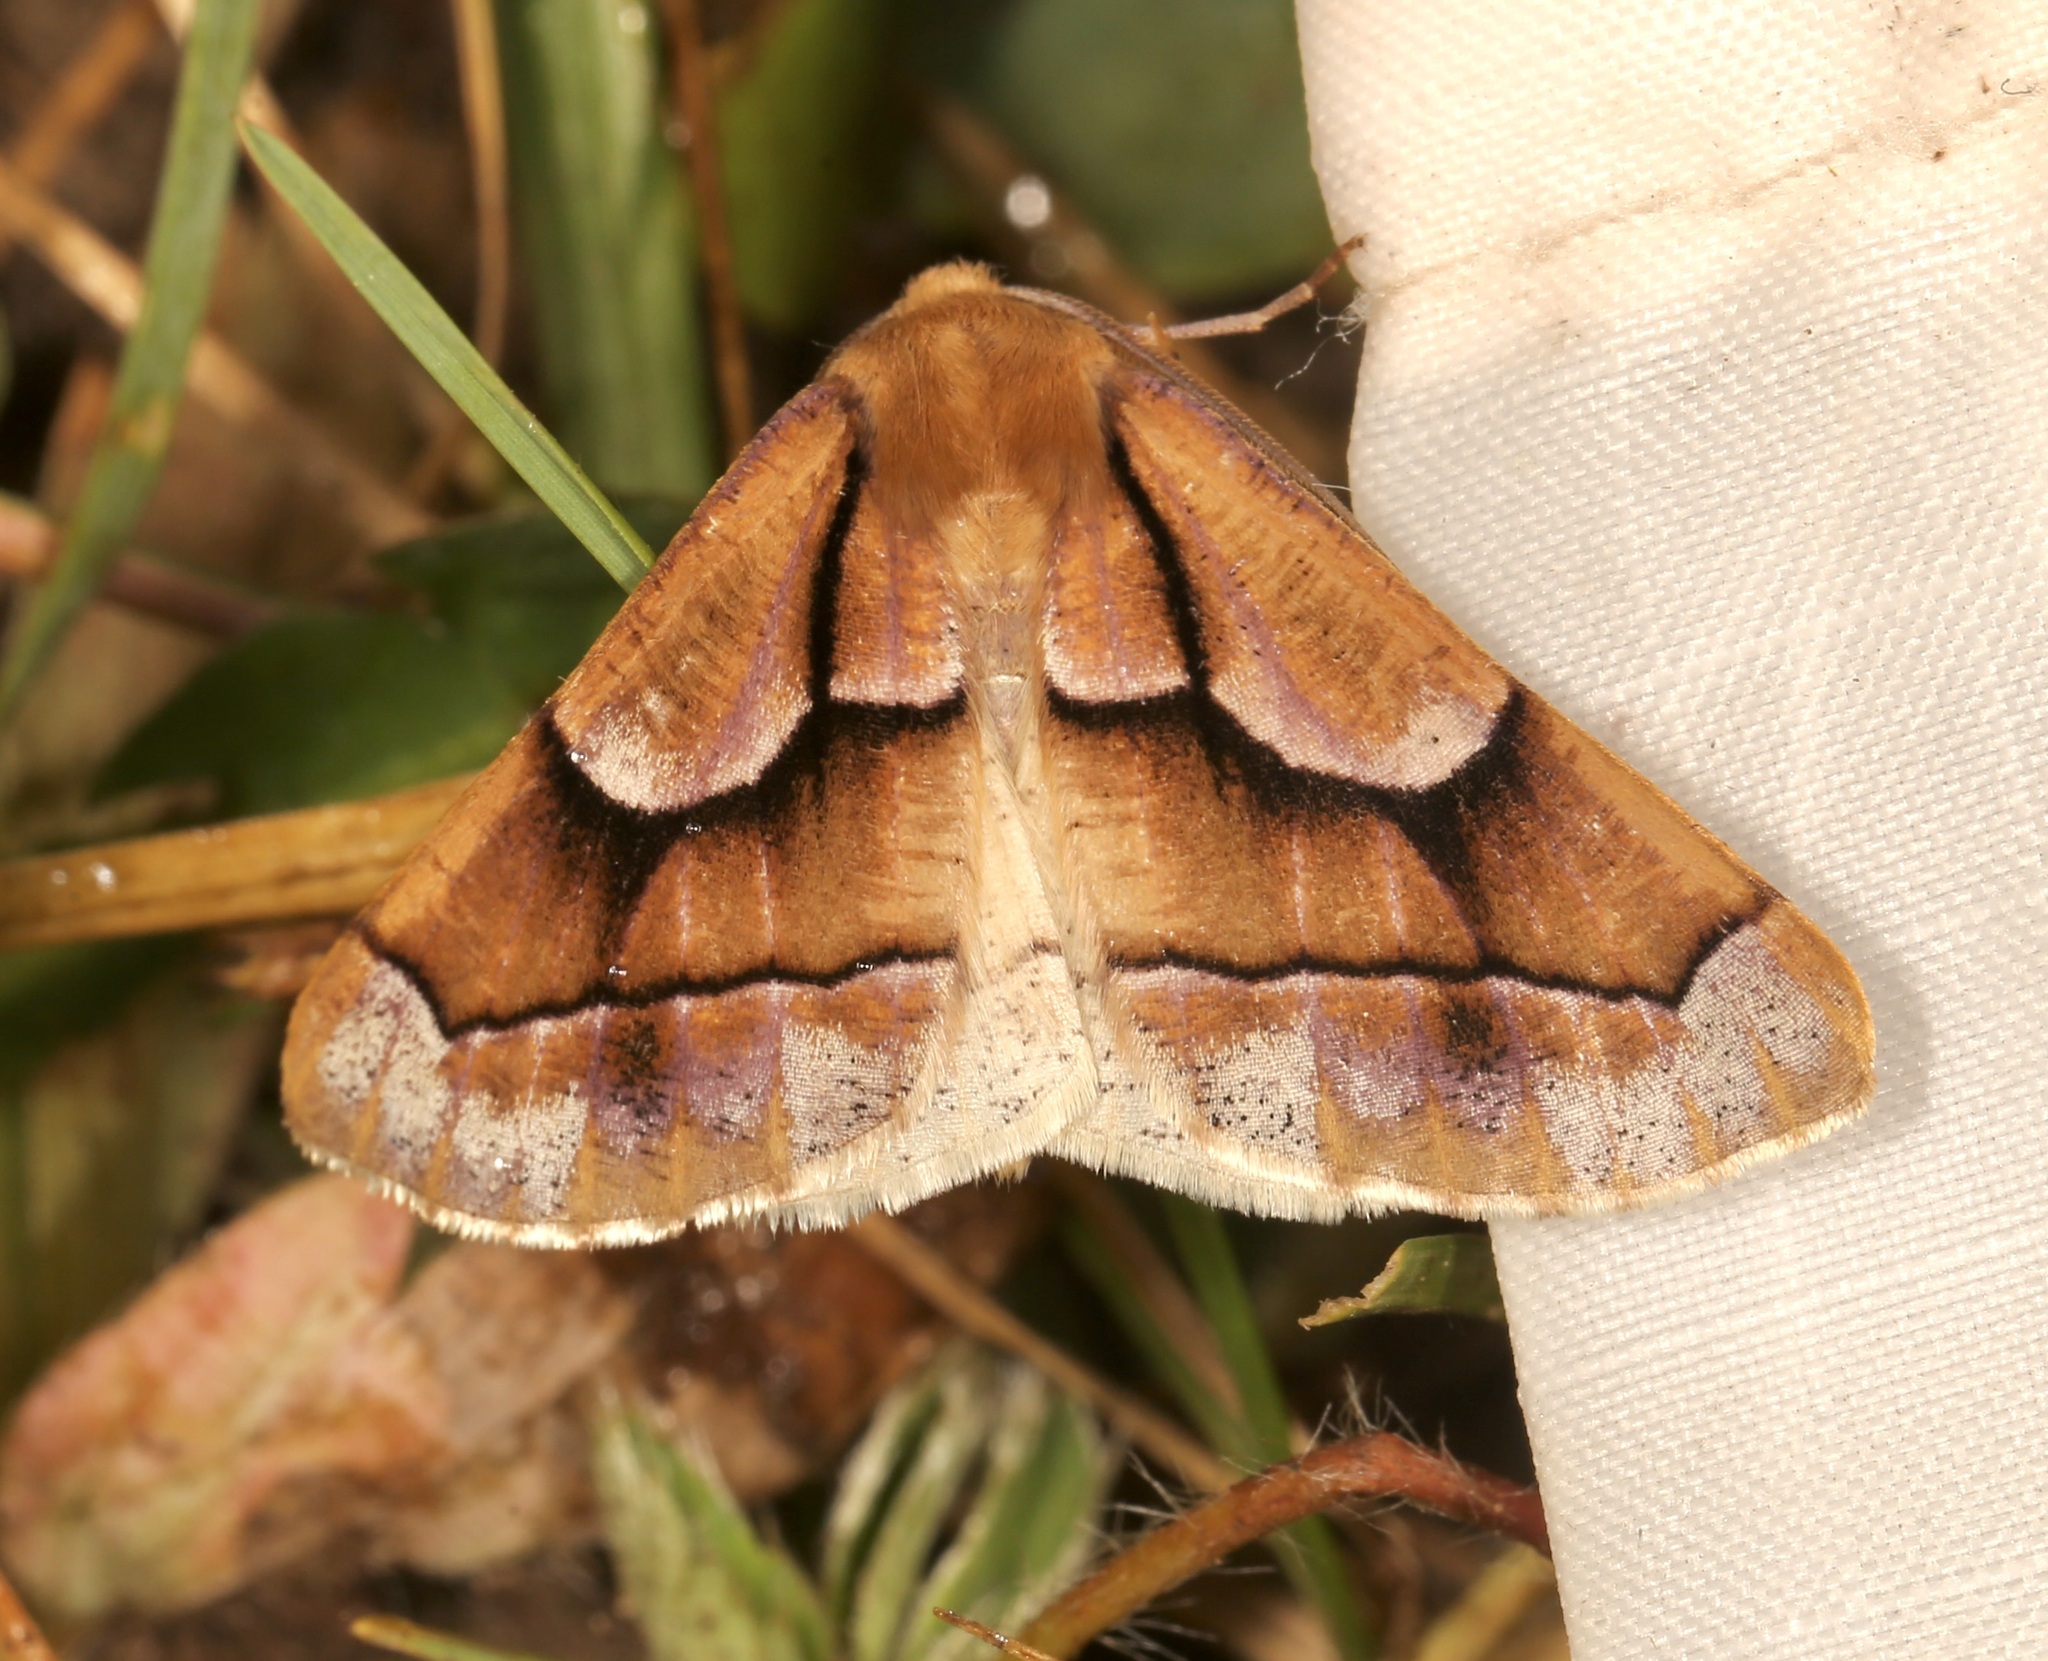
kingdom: Animalia
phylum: Arthropoda
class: Insecta
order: Lepidoptera
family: Geometridae
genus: Snowia
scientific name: Snowia montanaria
